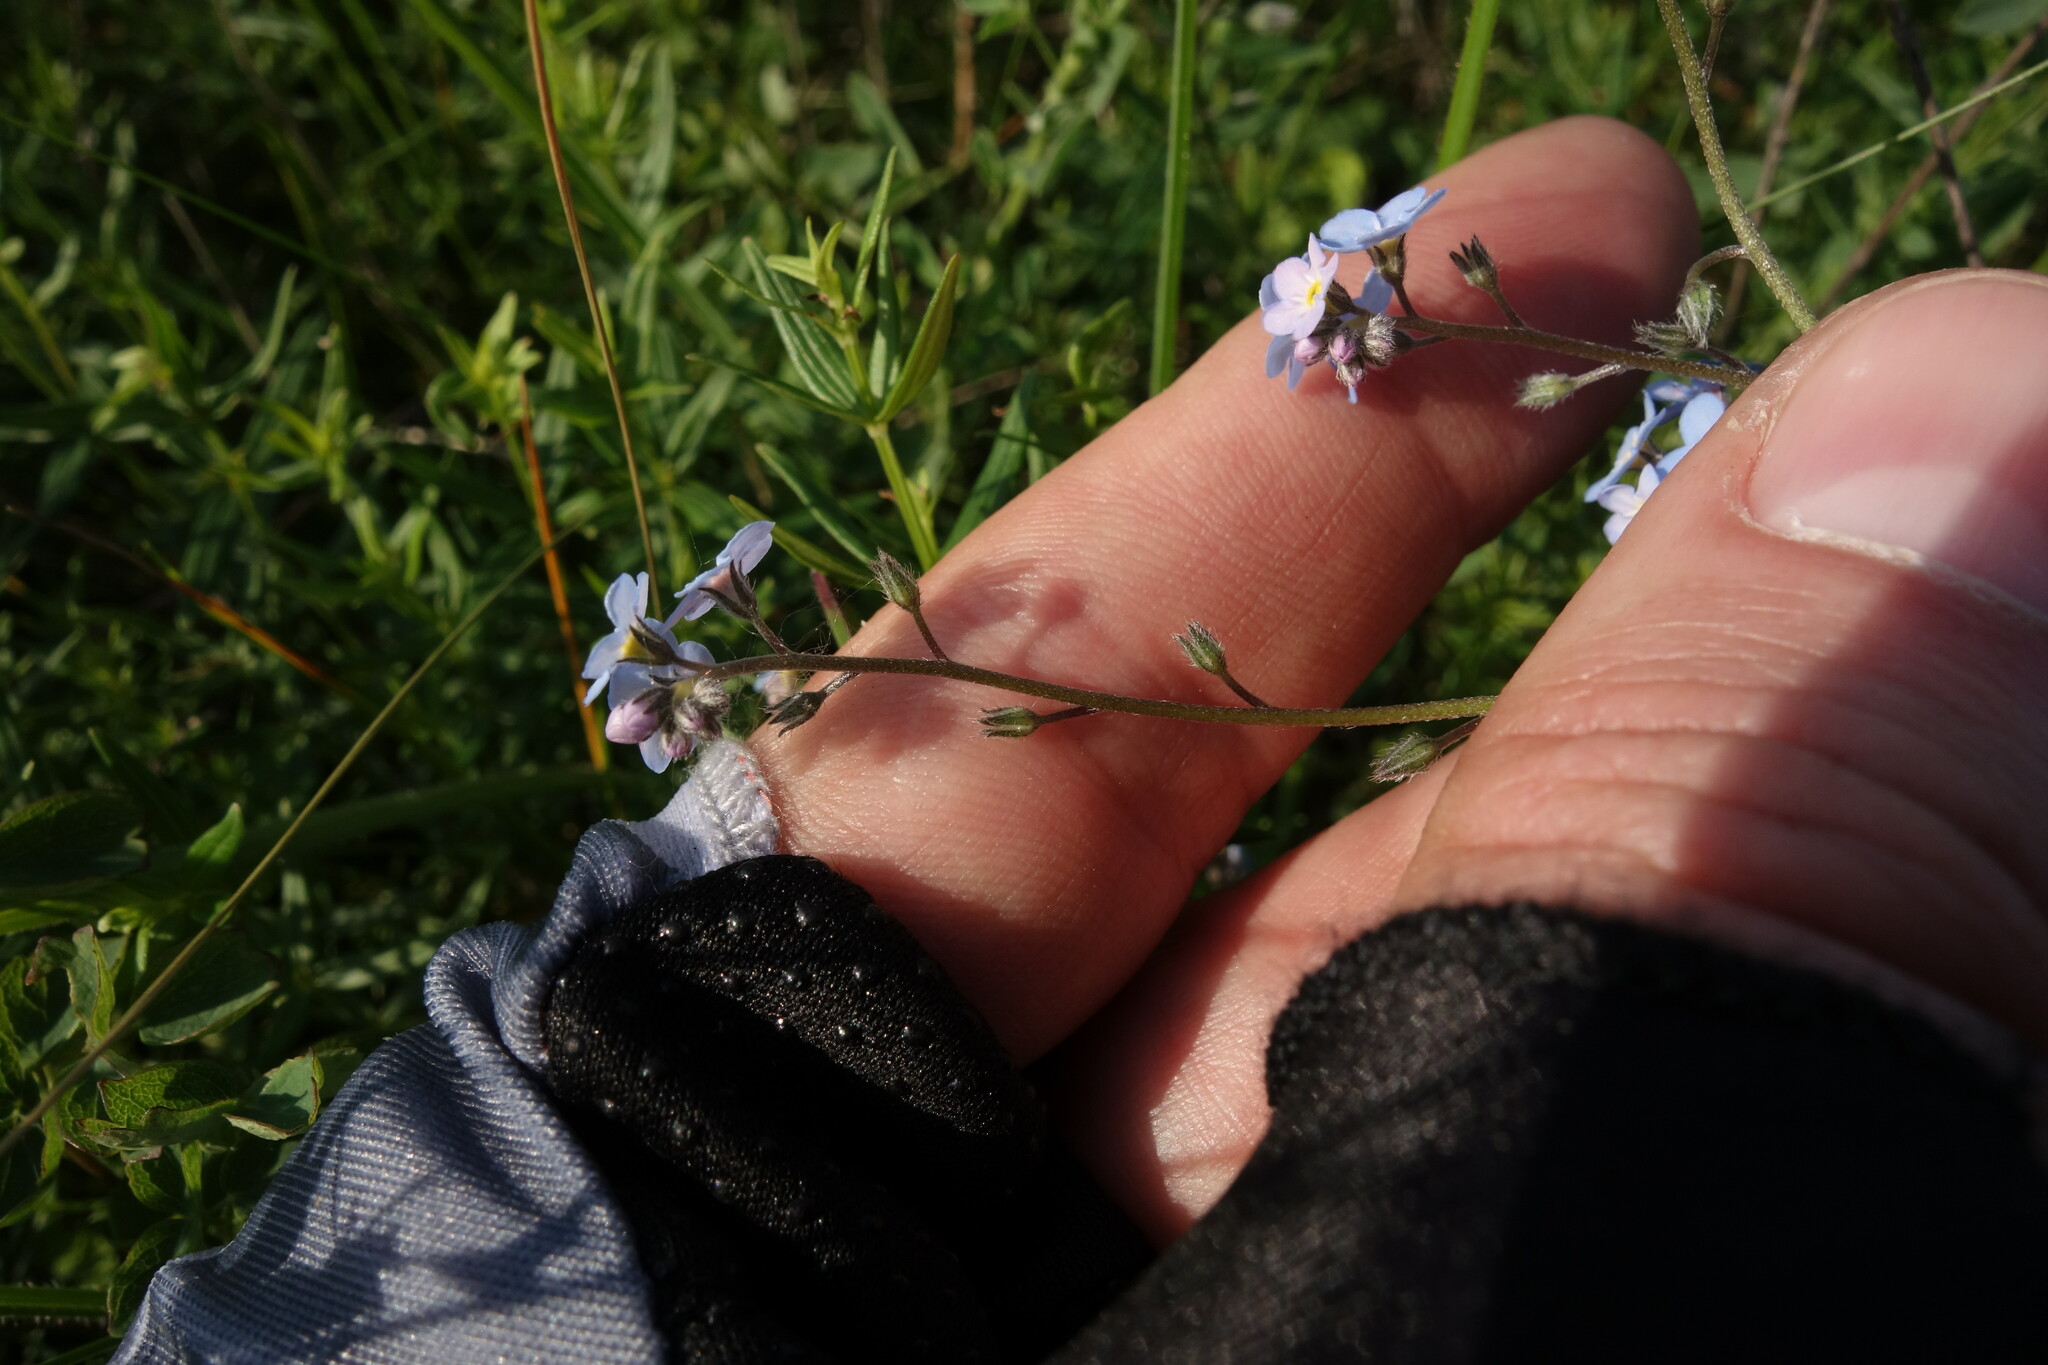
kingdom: Plantae
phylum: Tracheophyta
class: Magnoliopsida
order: Boraginales
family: Boraginaceae
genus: Myosotis
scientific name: Myosotis alpestris
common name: Alpine forget-me-not
